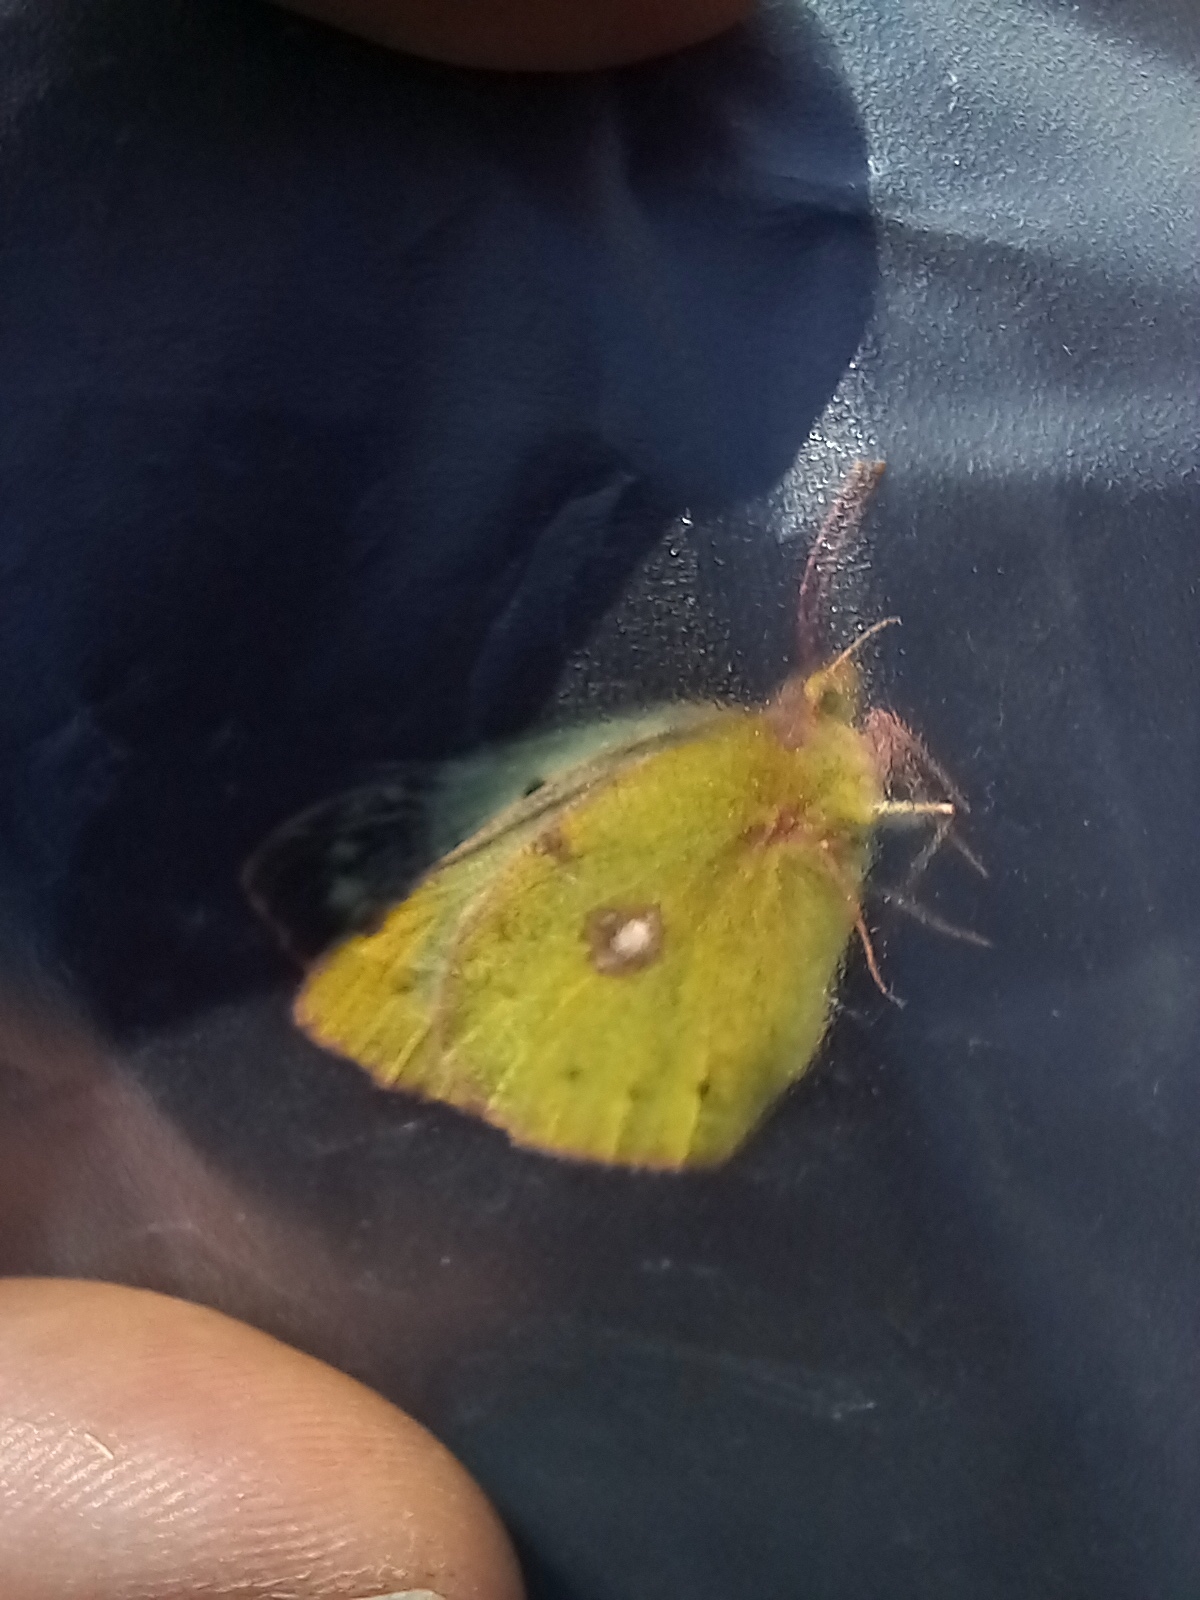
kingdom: Animalia
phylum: Arthropoda
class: Insecta
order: Lepidoptera
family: Pieridae
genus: Colias
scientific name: Colias alfacariensis
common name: Berger's clouded yellow
